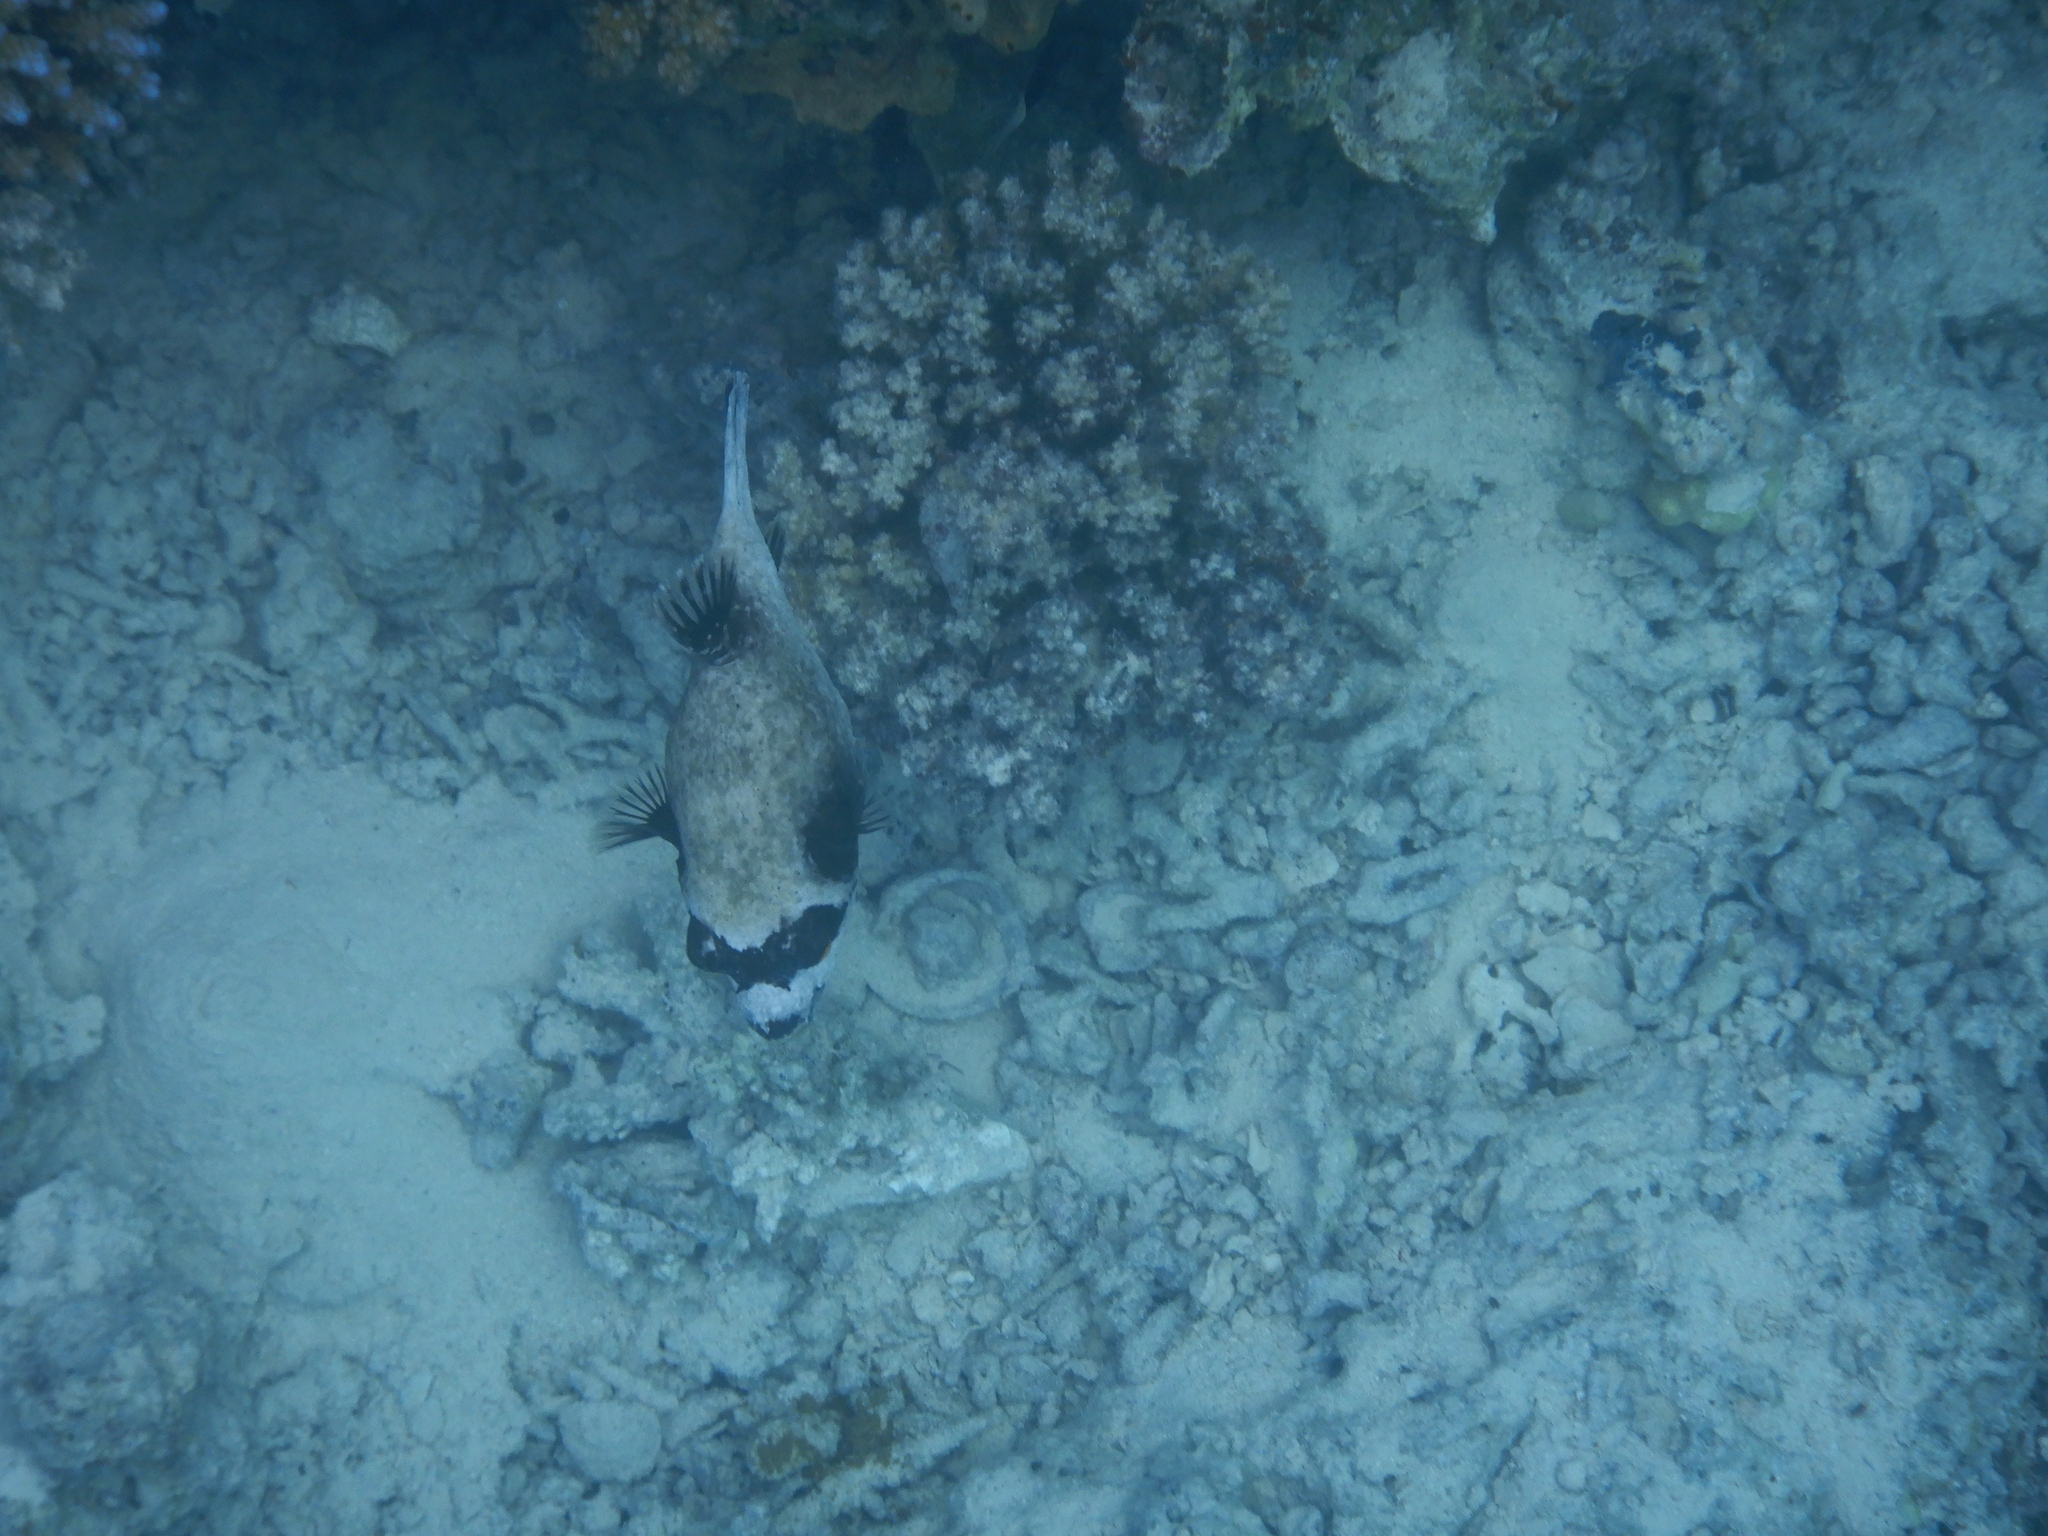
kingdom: Animalia
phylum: Chordata
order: Tetraodontiformes
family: Tetraodontidae
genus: Arothron
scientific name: Arothron diadematus
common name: Masked puffer
